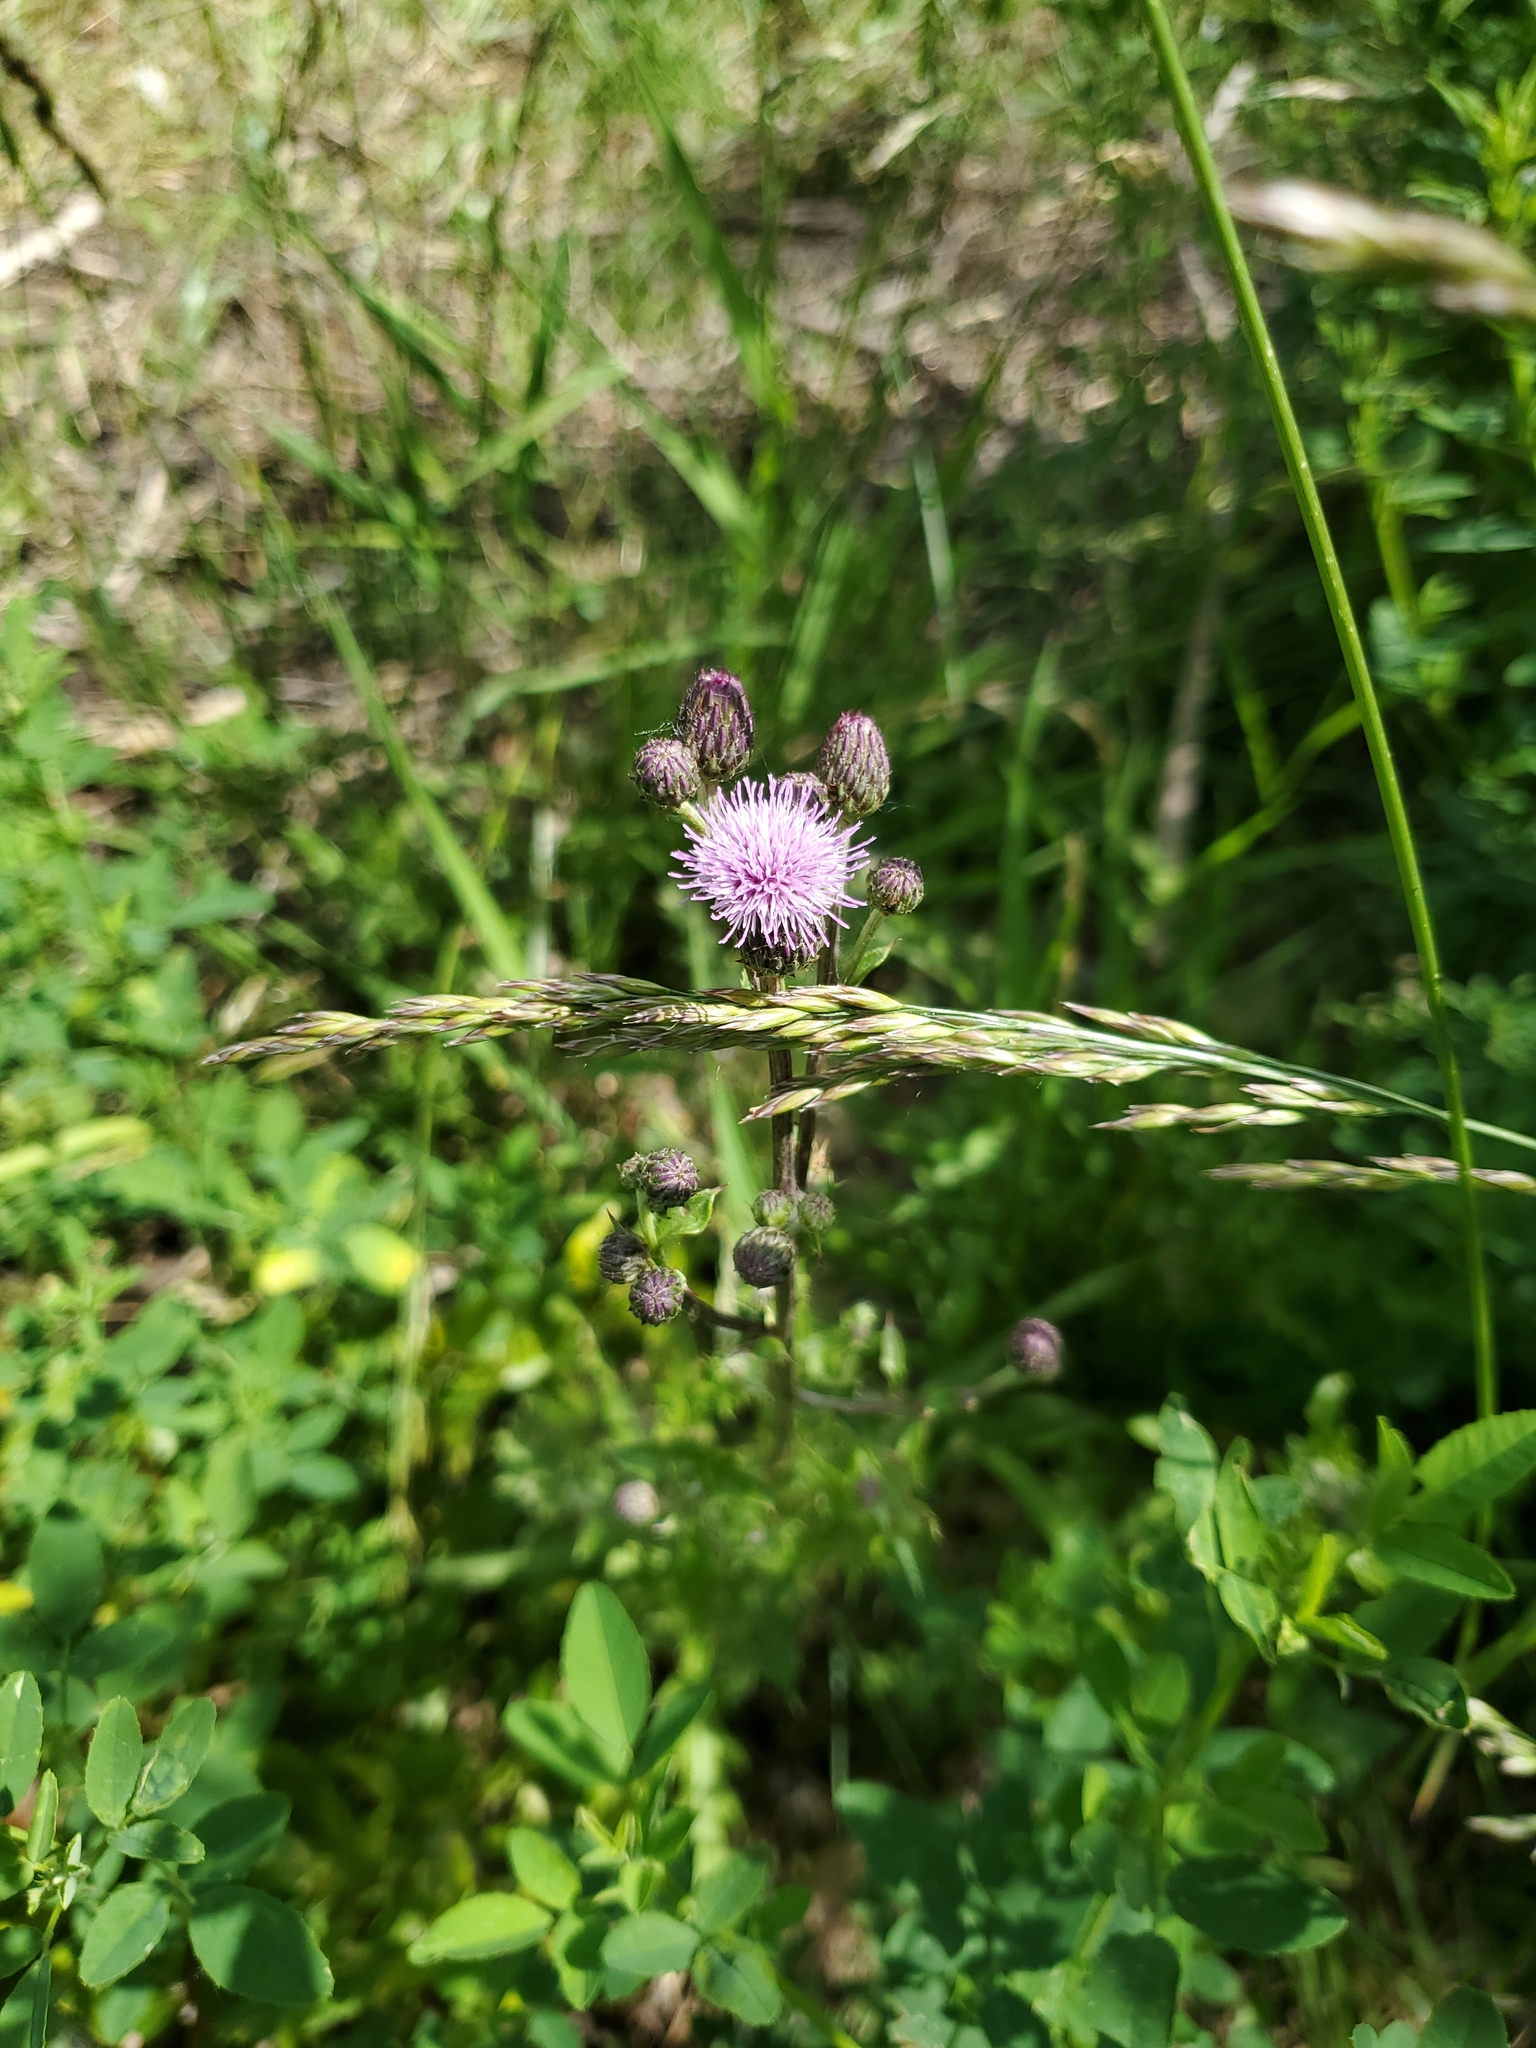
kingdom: Plantae
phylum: Tracheophyta
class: Magnoliopsida
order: Asterales
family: Asteraceae
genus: Cirsium
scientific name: Cirsium arvense
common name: Creeping thistle
